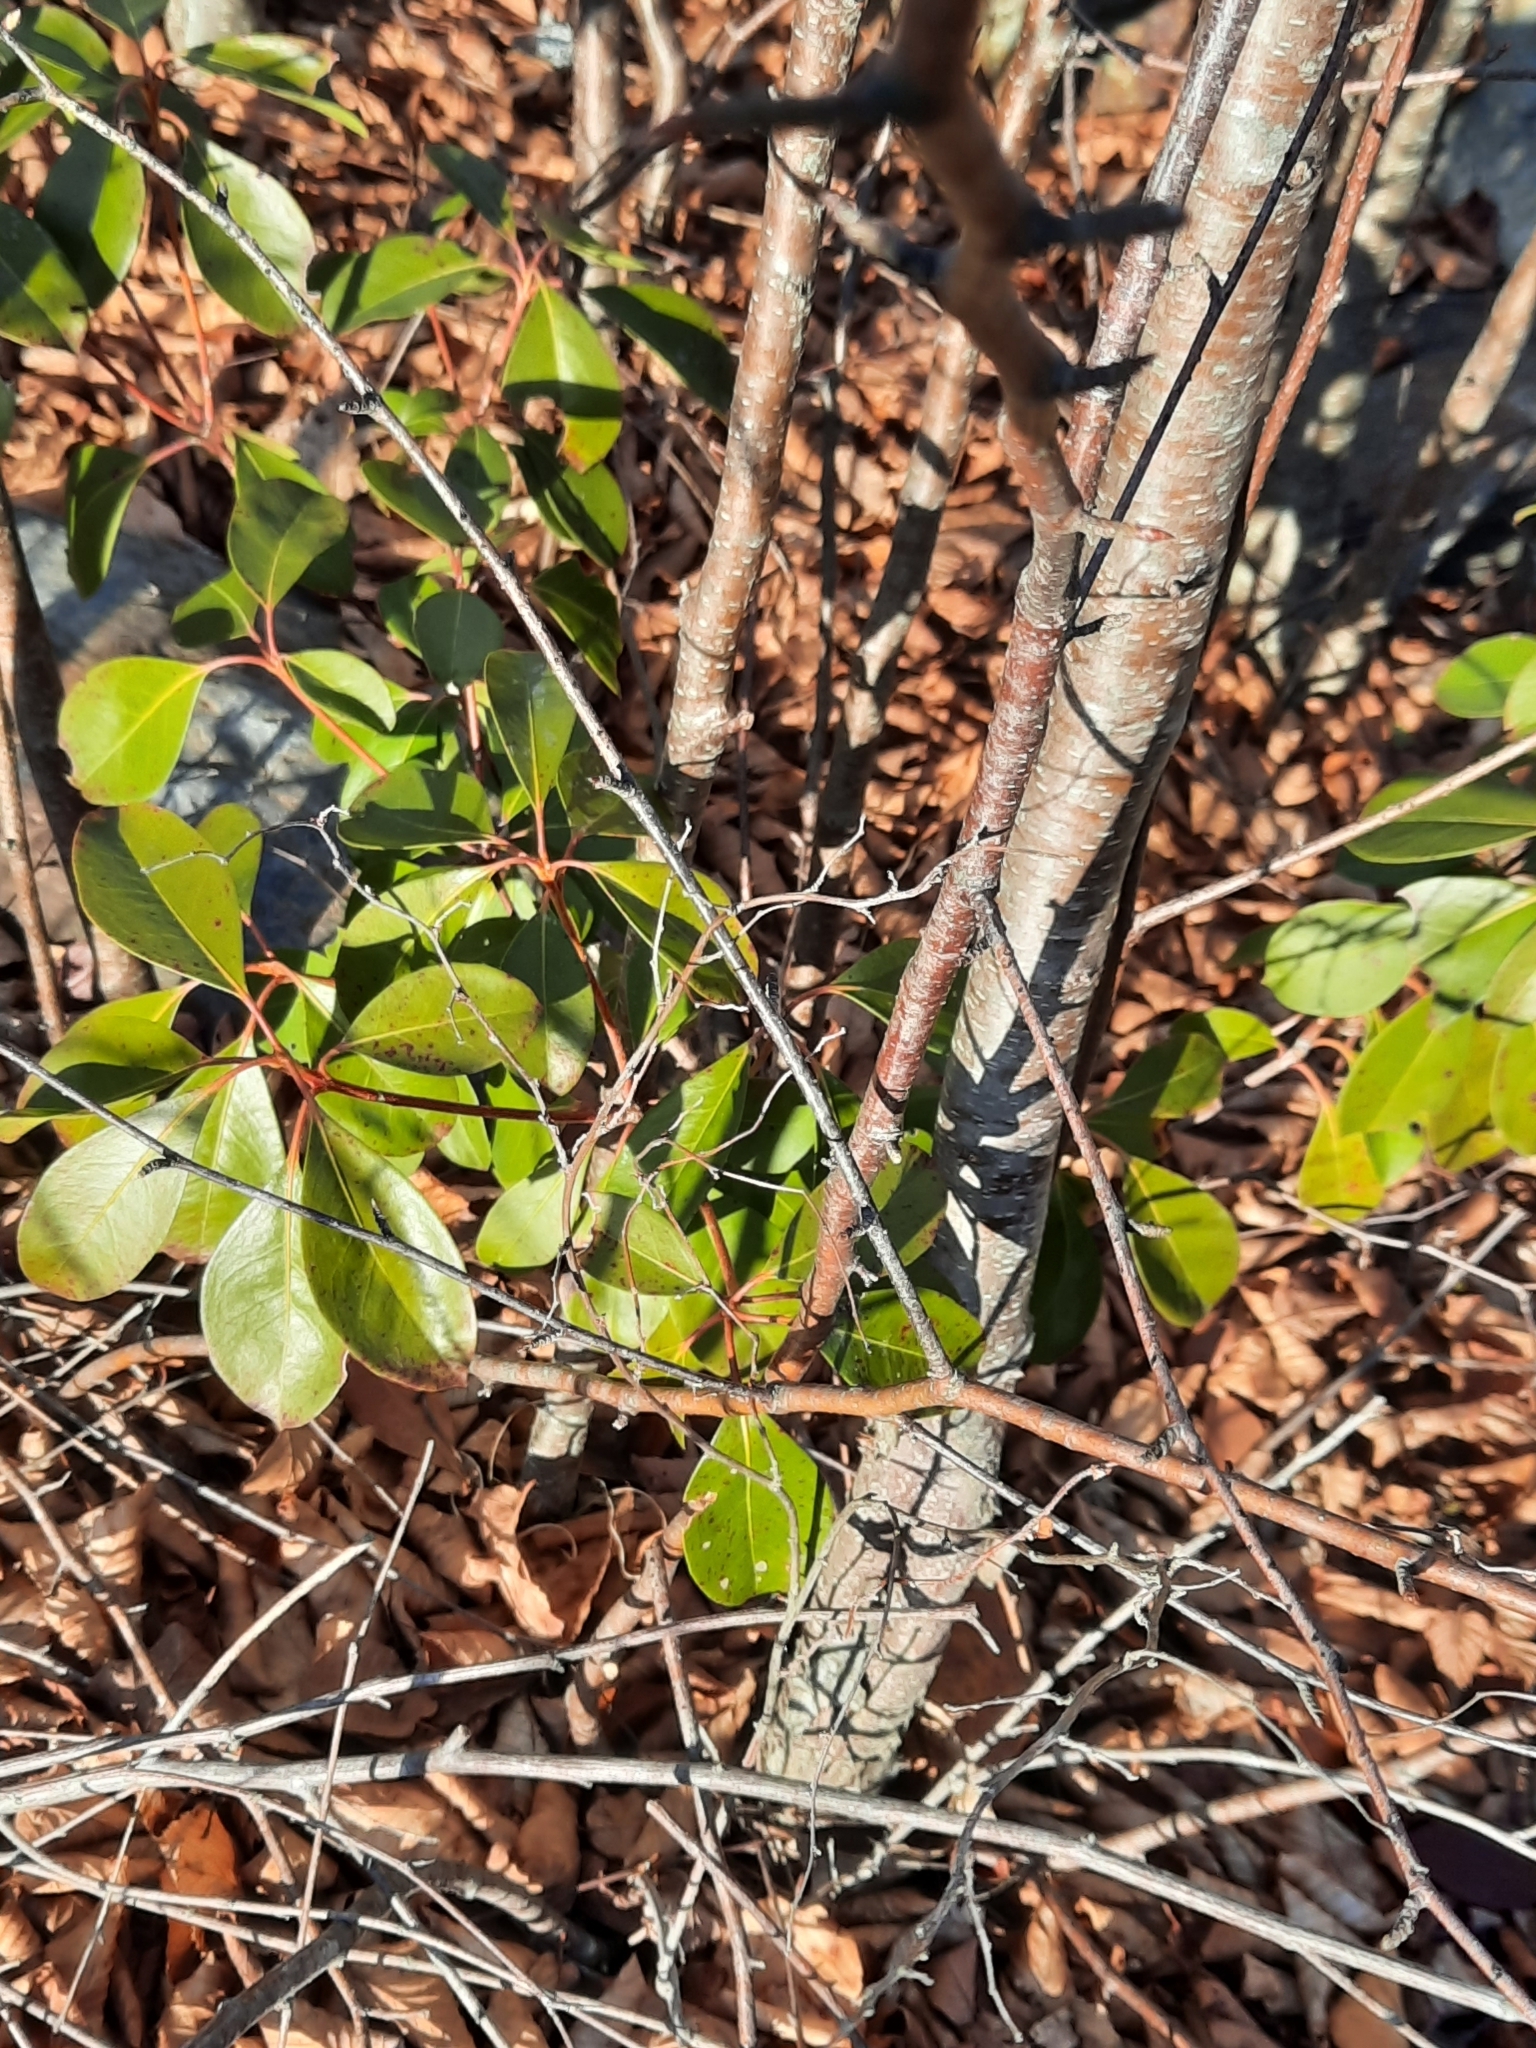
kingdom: Plantae
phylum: Tracheophyta
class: Magnoliopsida
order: Ericales
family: Ericaceae
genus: Kalmia
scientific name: Kalmia latifolia
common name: Mountain-laurel
